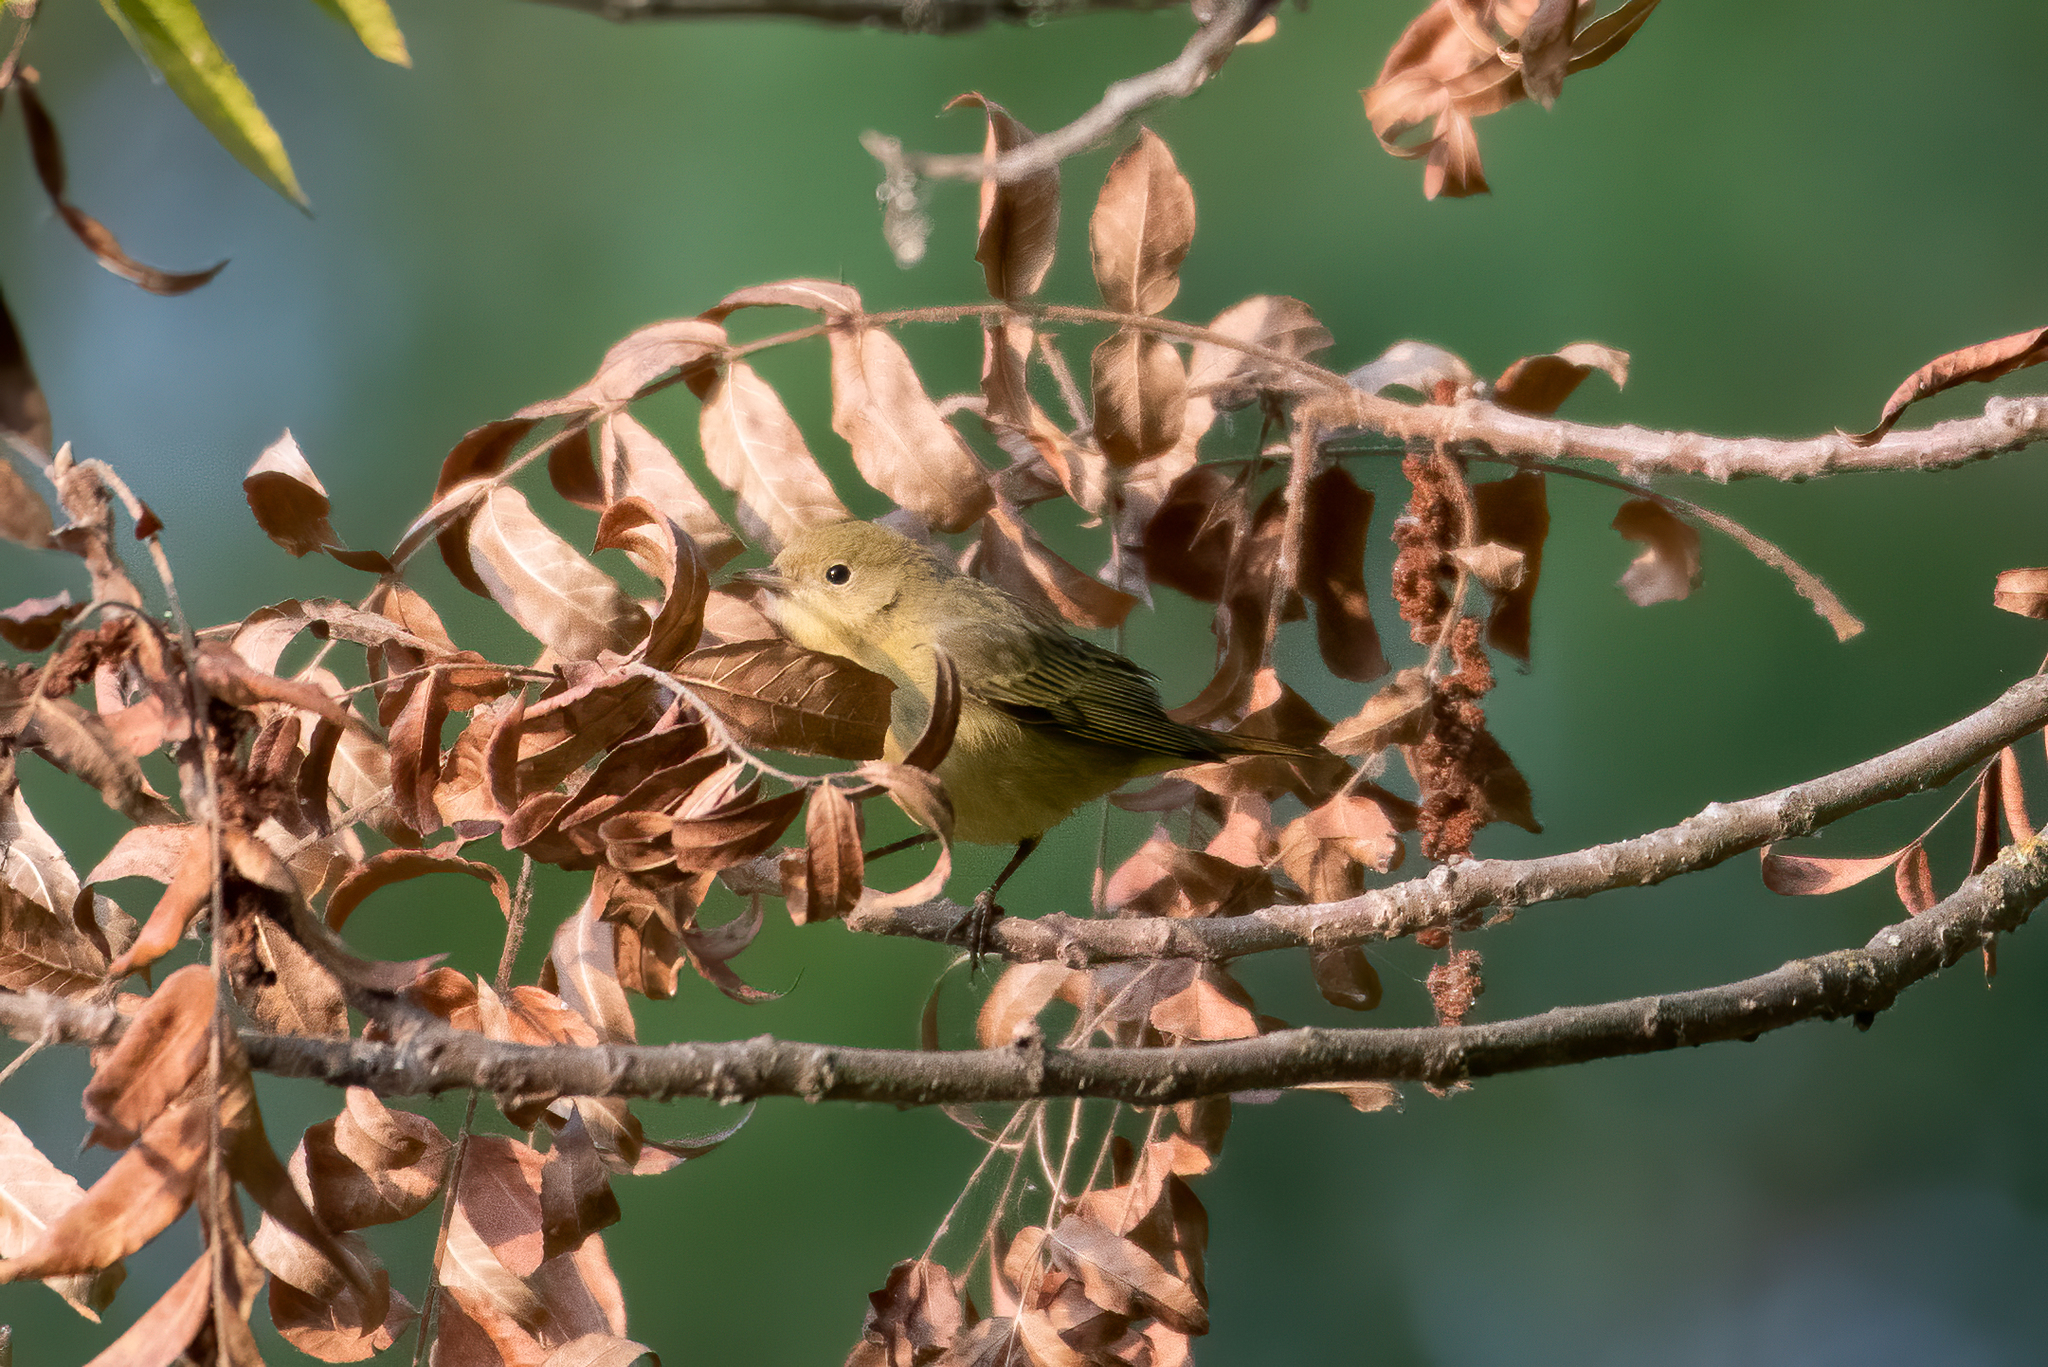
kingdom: Animalia
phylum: Chordata
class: Aves
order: Passeriformes
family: Parulidae
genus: Setophaga
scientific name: Setophaga petechia
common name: Yellow warbler
